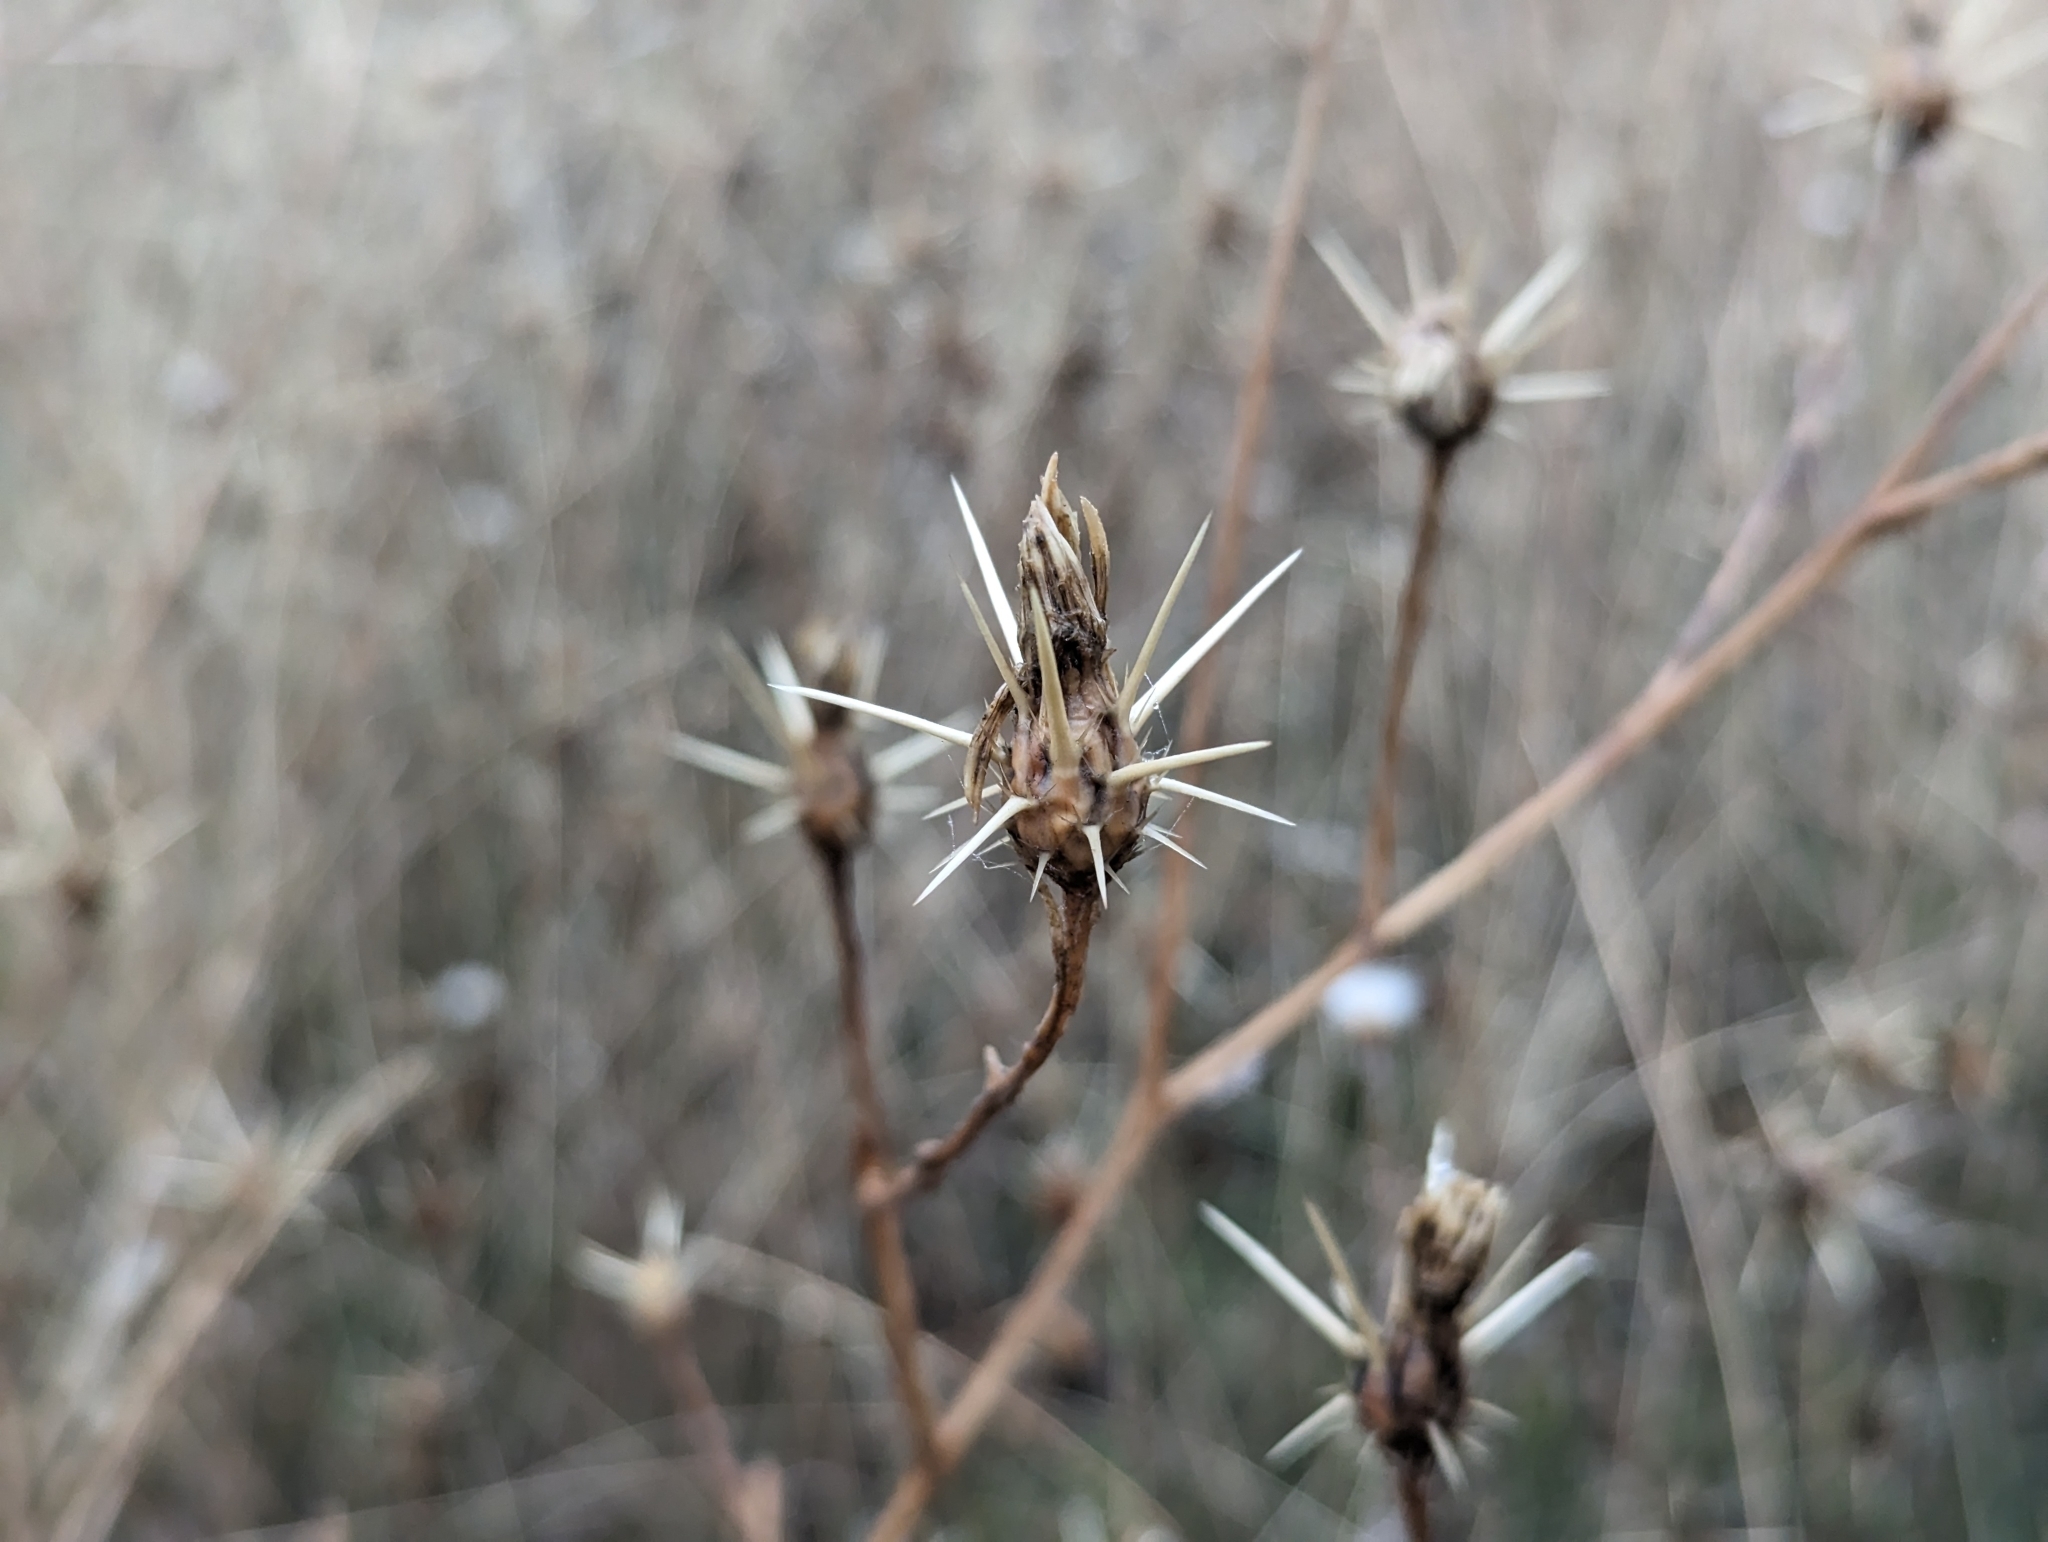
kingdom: Plantae
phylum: Tracheophyta
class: Magnoliopsida
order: Asterales
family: Asteraceae
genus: Centaurea
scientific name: Centaurea solstitialis
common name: Yellow star-thistle
